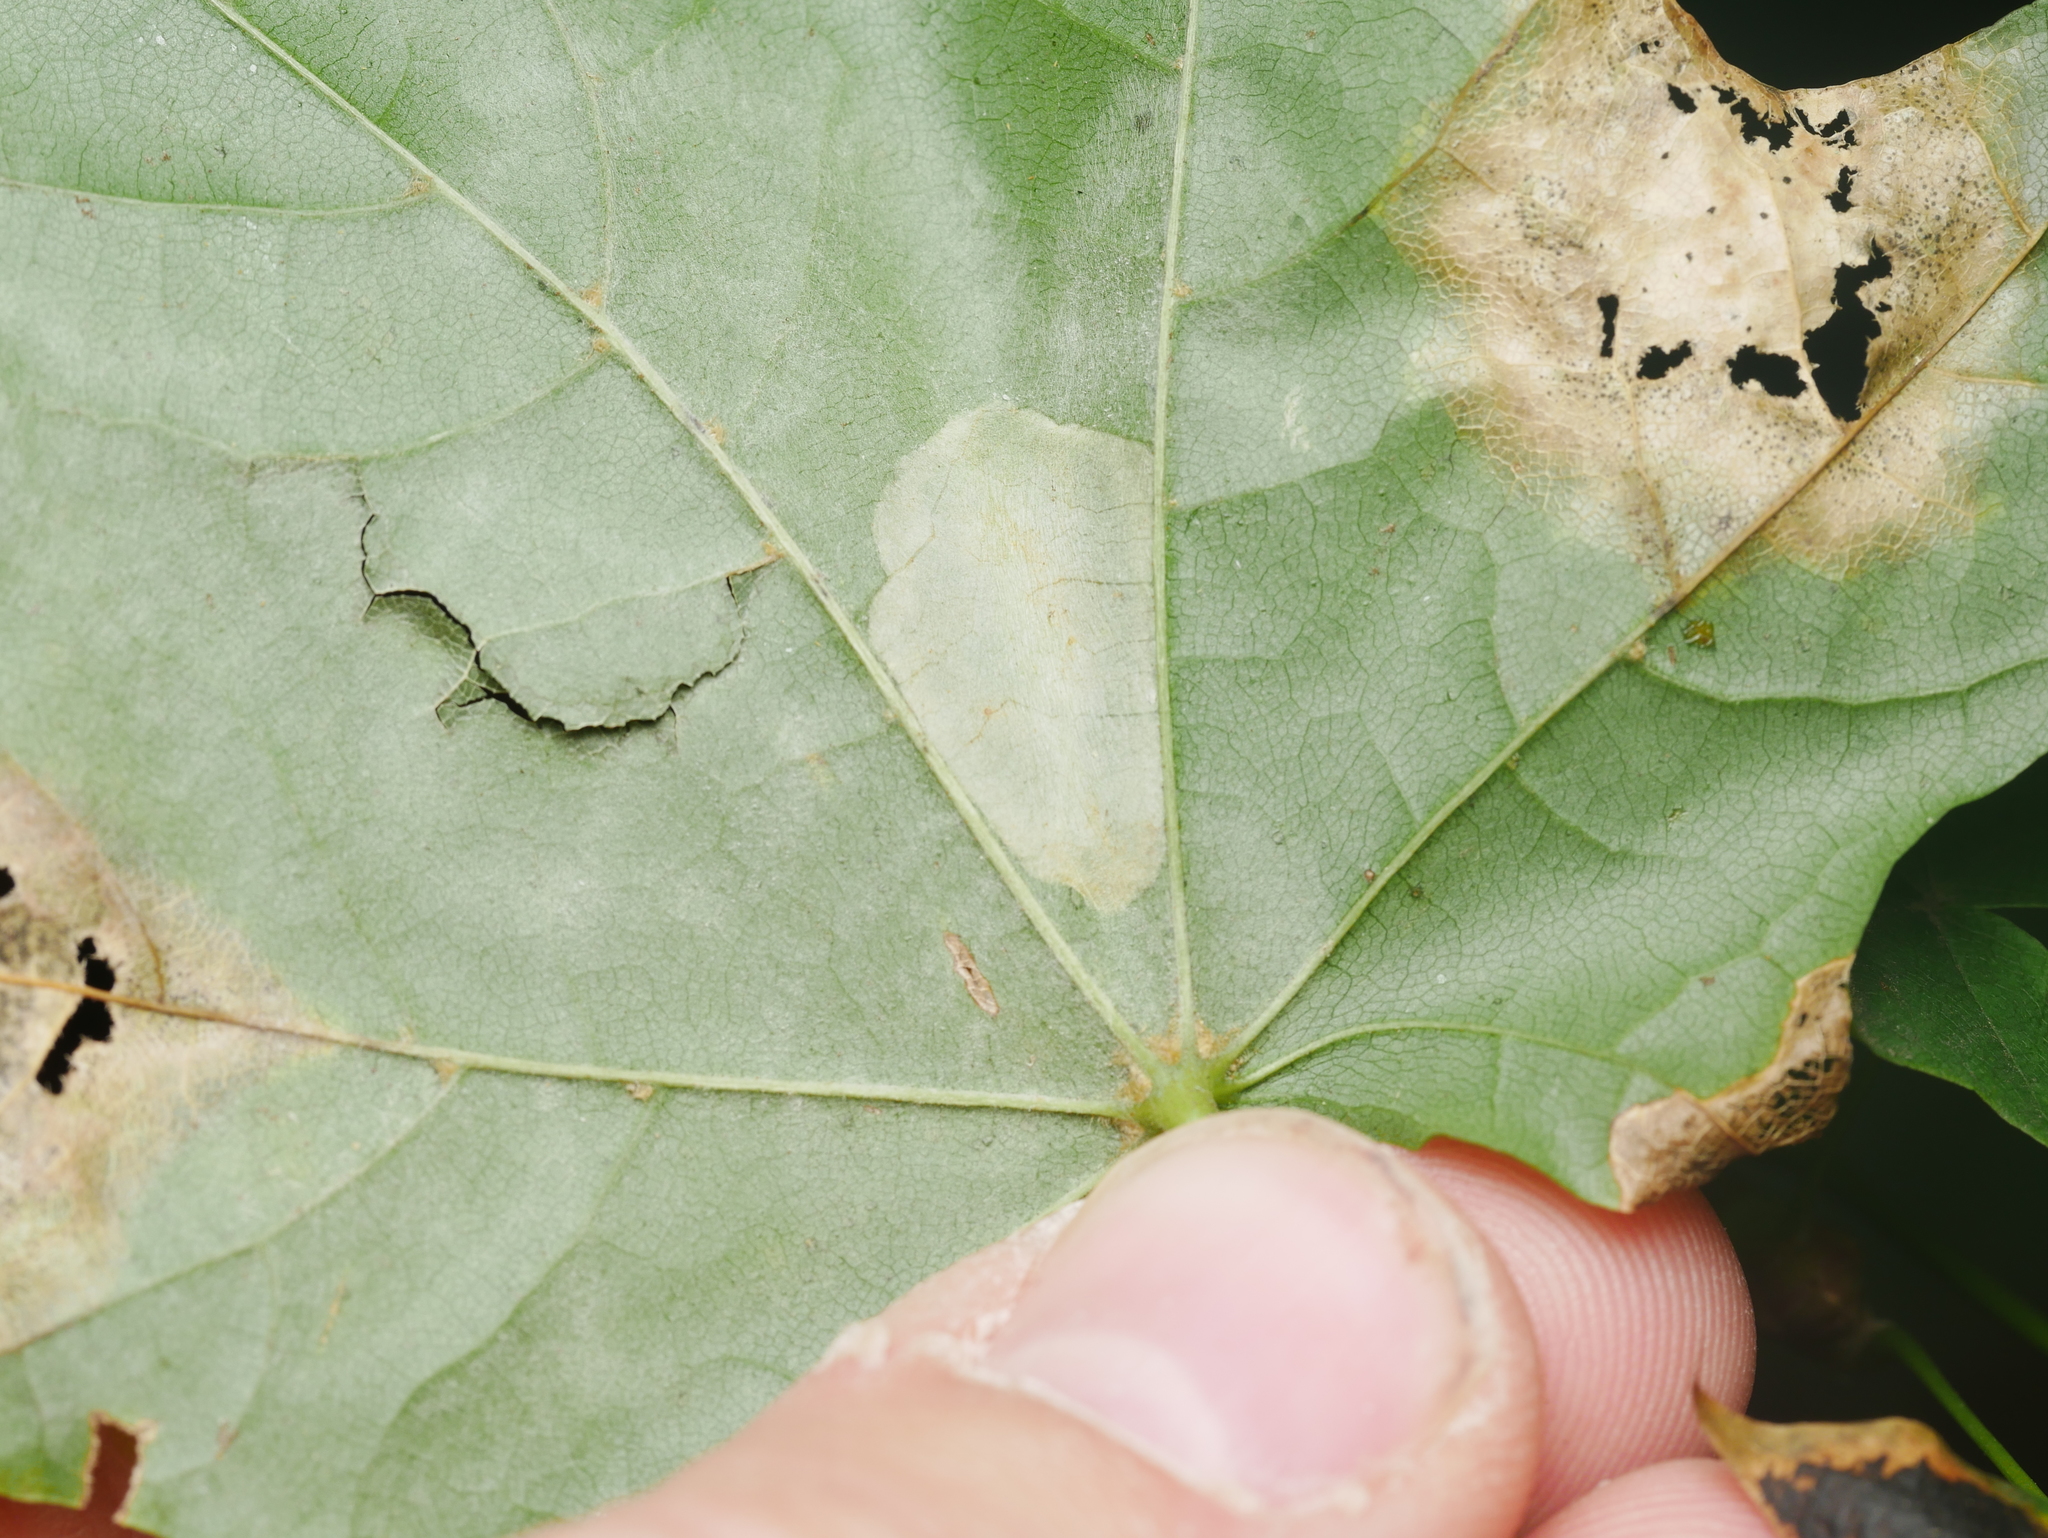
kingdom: Animalia
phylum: Arthropoda
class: Insecta
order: Lepidoptera
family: Gracillariidae
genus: Phyllonorycter
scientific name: Phyllonorycter joannisi
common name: White-bodied midget
